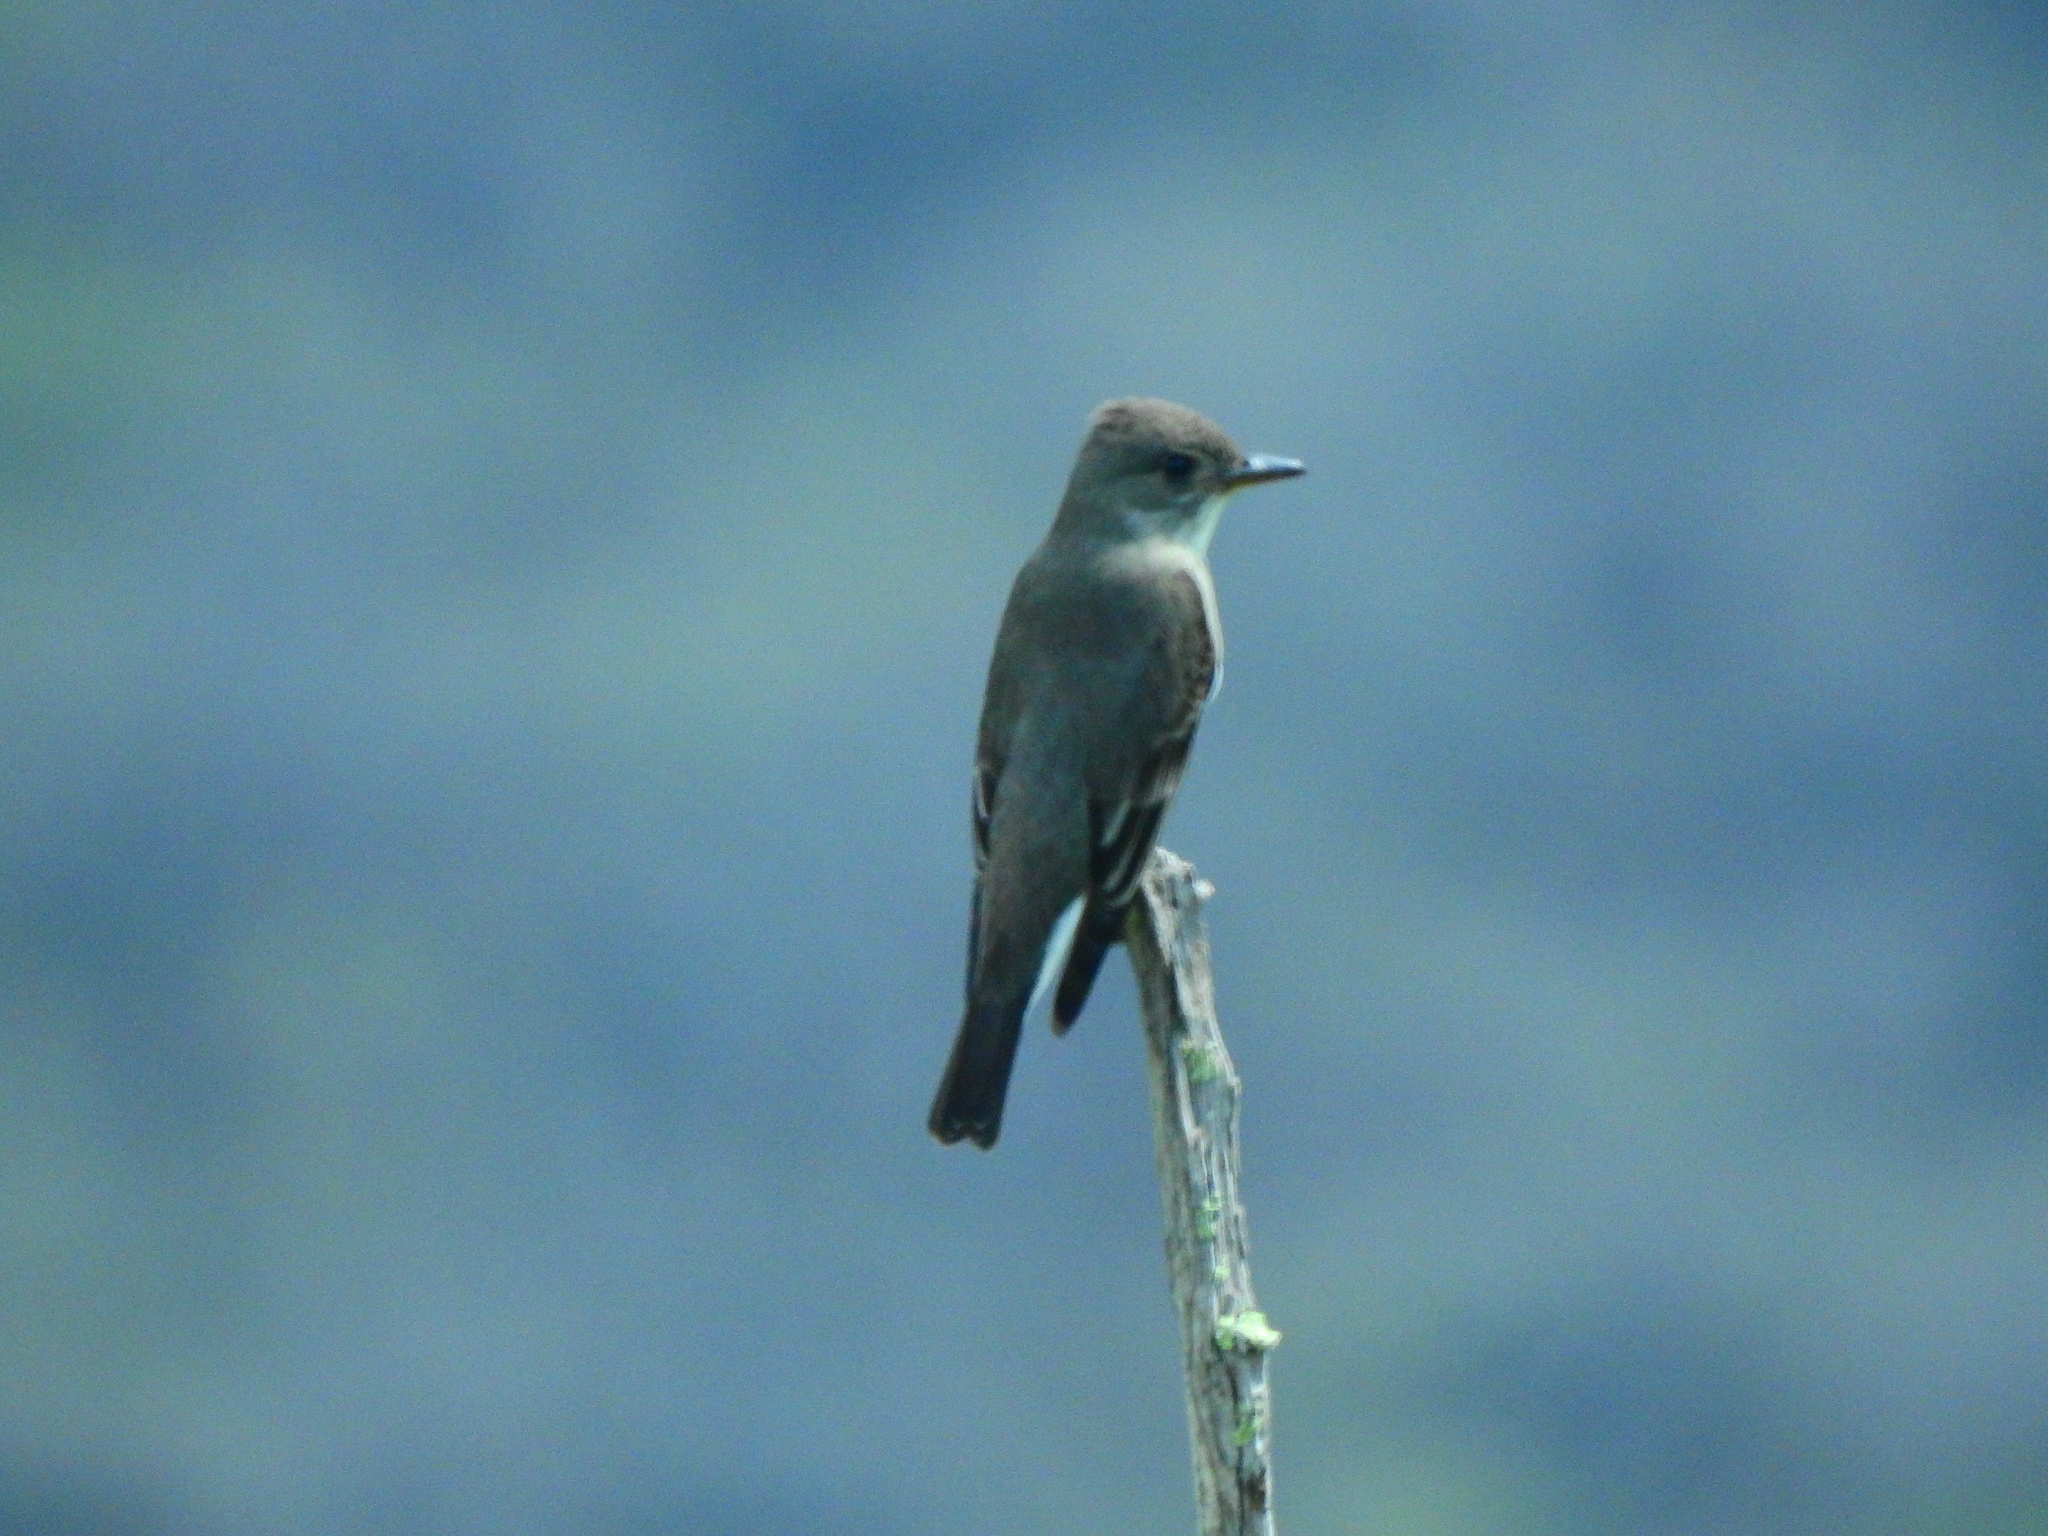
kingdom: Animalia
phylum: Chordata
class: Aves
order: Passeriformes
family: Tyrannidae
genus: Contopus
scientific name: Contopus sordidulus
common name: Western wood-pewee
